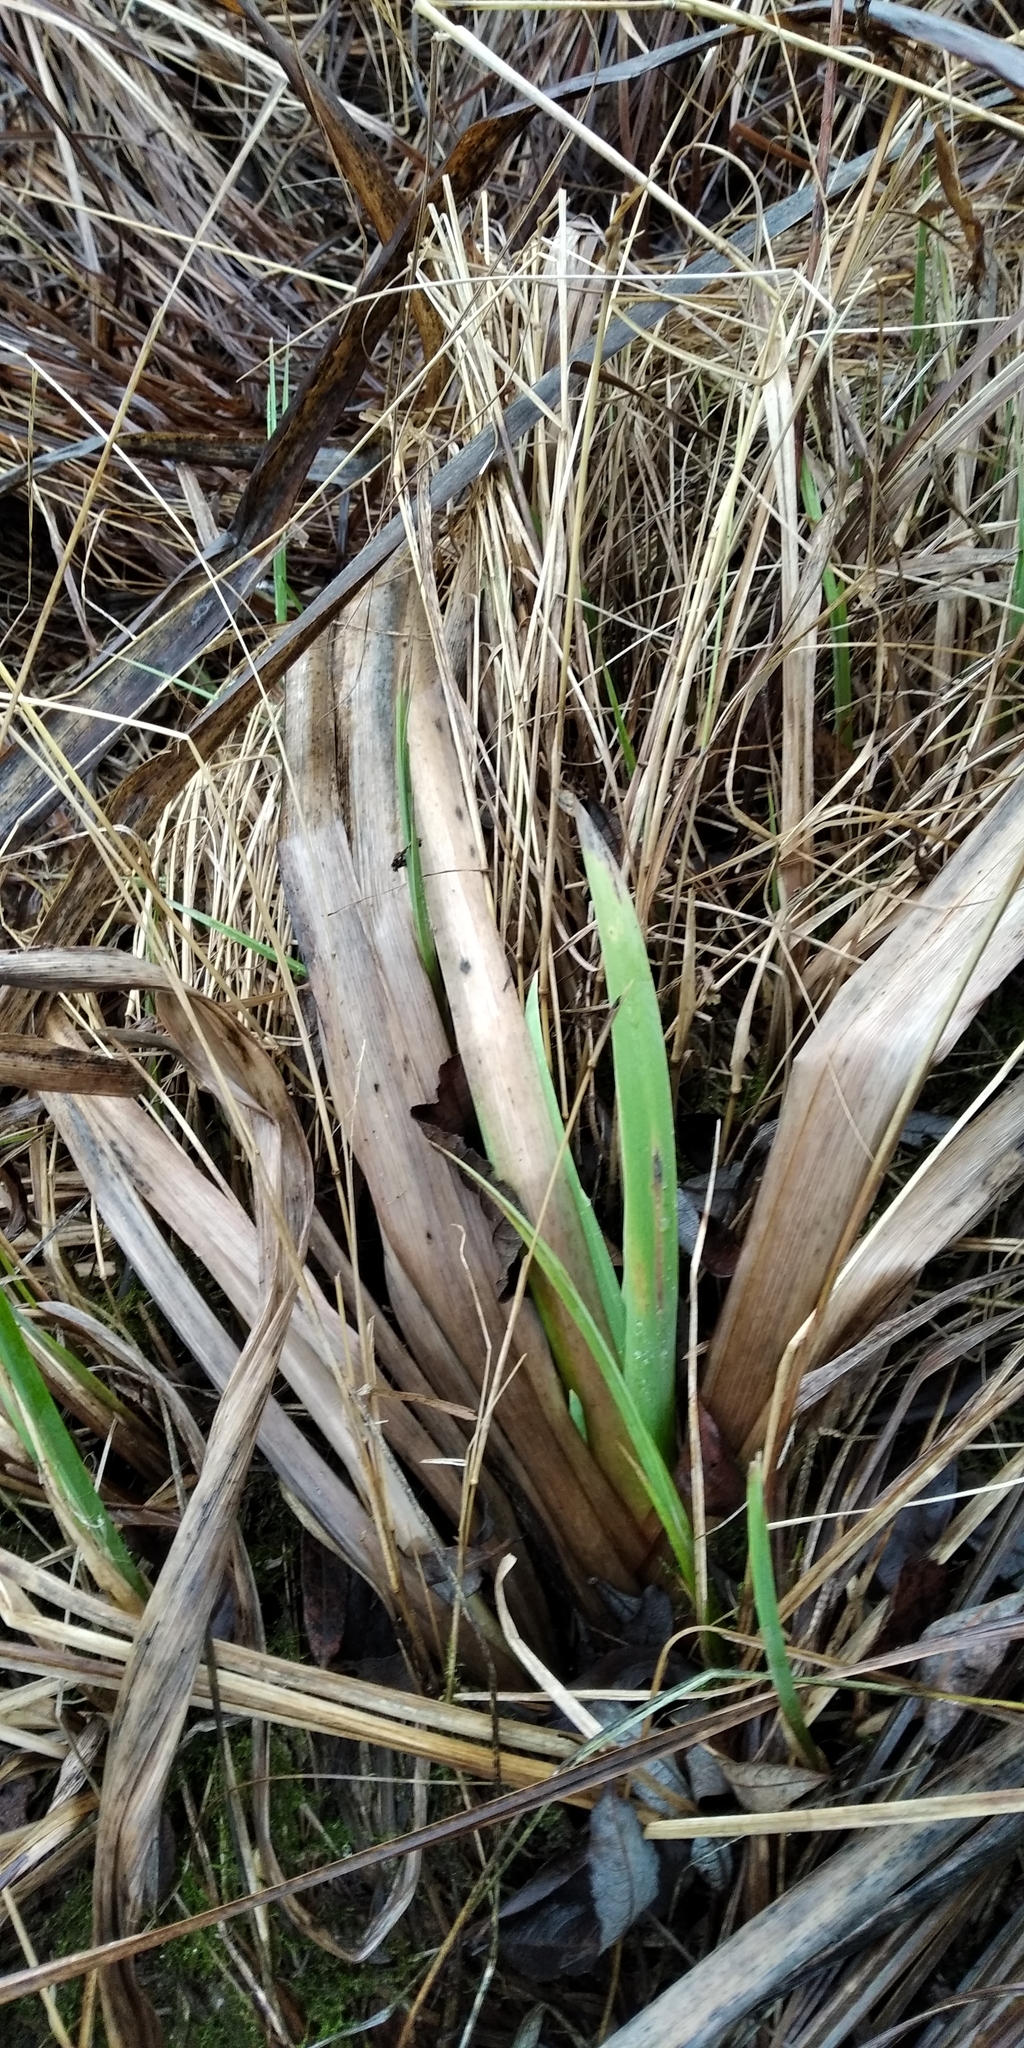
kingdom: Plantae
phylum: Tracheophyta
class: Liliopsida
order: Asparagales
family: Iridaceae
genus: Iris
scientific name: Iris pseudacorus
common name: Yellow flag
